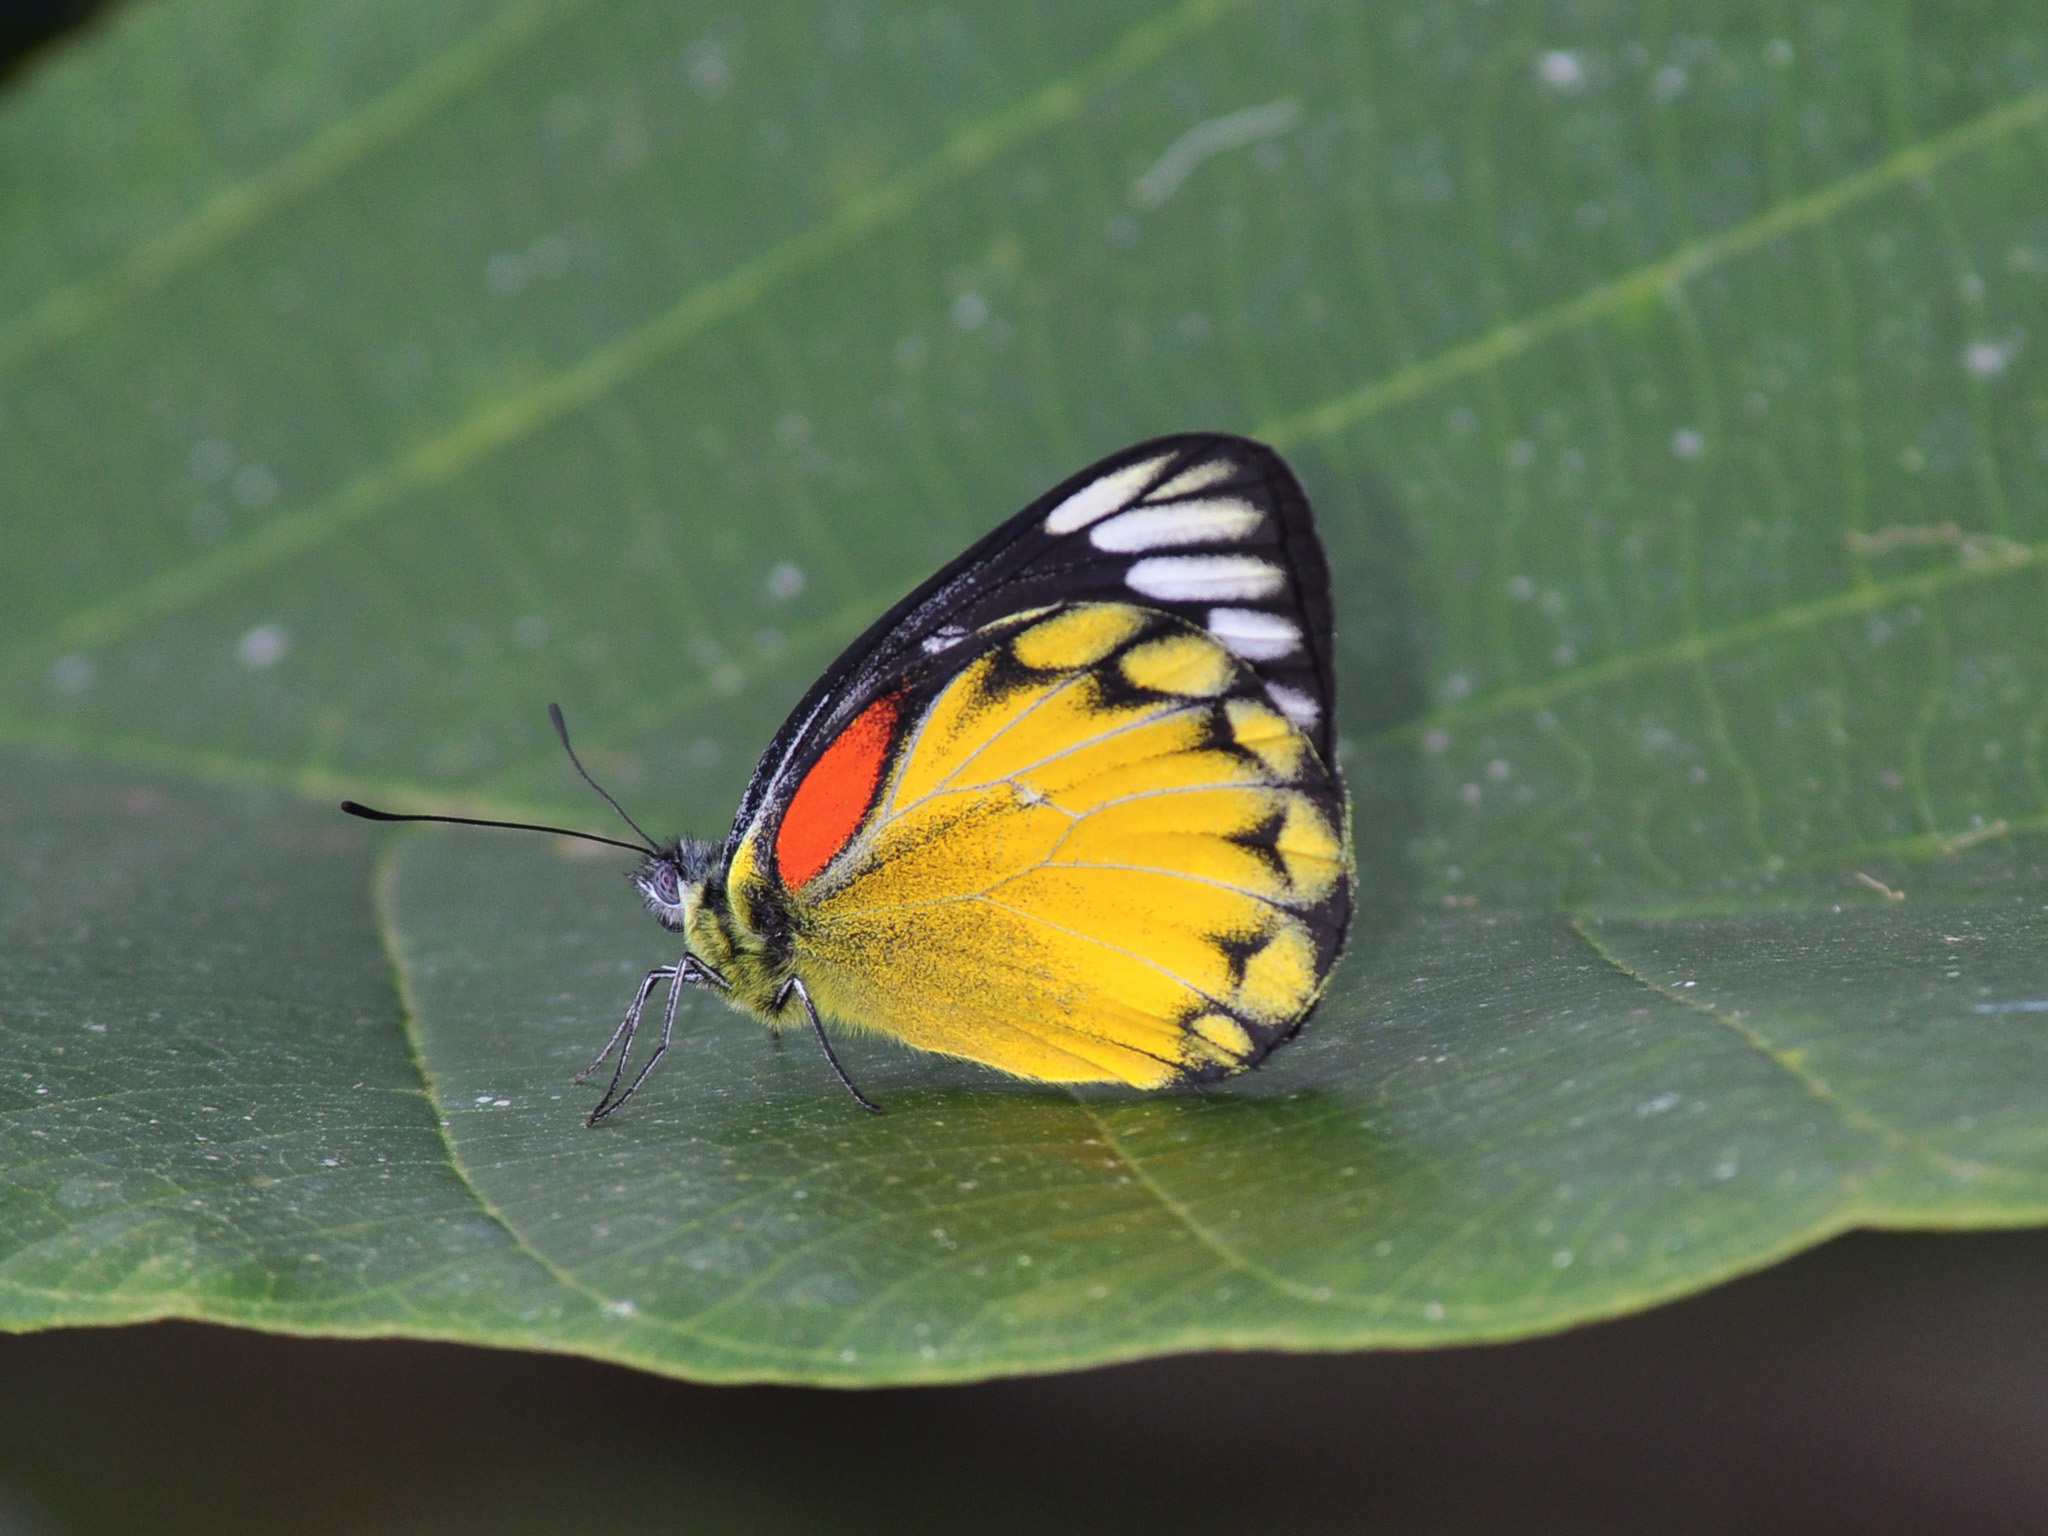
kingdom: Animalia
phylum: Arthropoda
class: Insecta
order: Lepidoptera
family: Pieridae
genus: Delias
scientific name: Delias descombesi
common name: Red-spot jezebel
